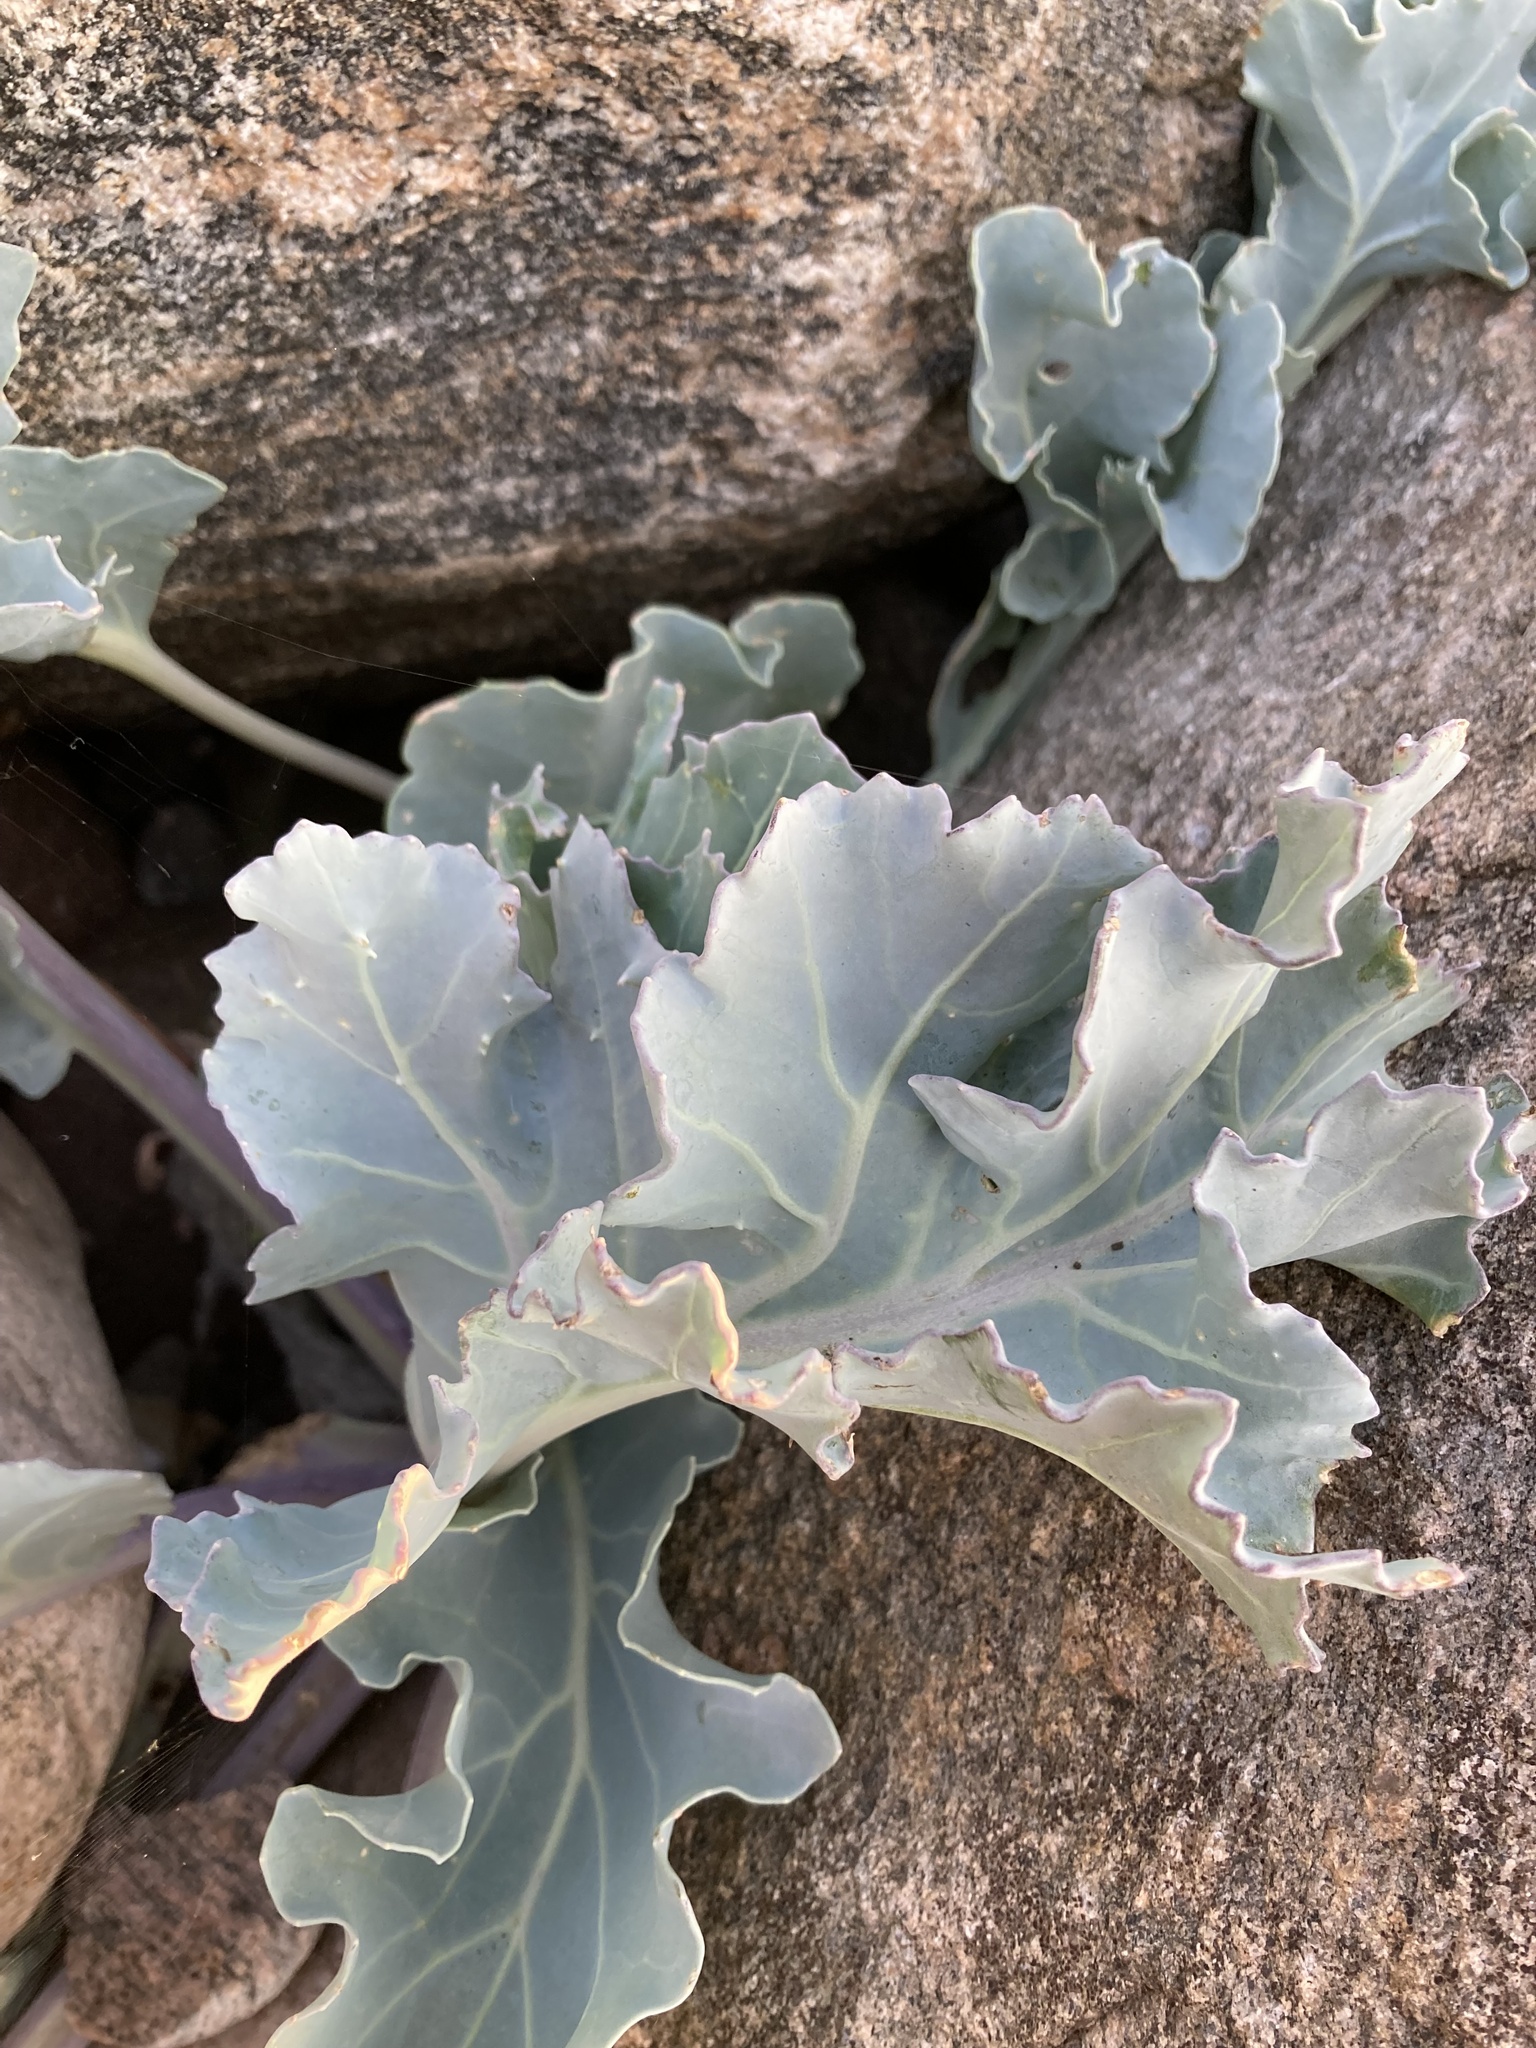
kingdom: Plantae
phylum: Tracheophyta
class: Magnoliopsida
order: Brassicales
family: Brassicaceae
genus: Crambe
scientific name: Crambe maritima
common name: Sea-kale
